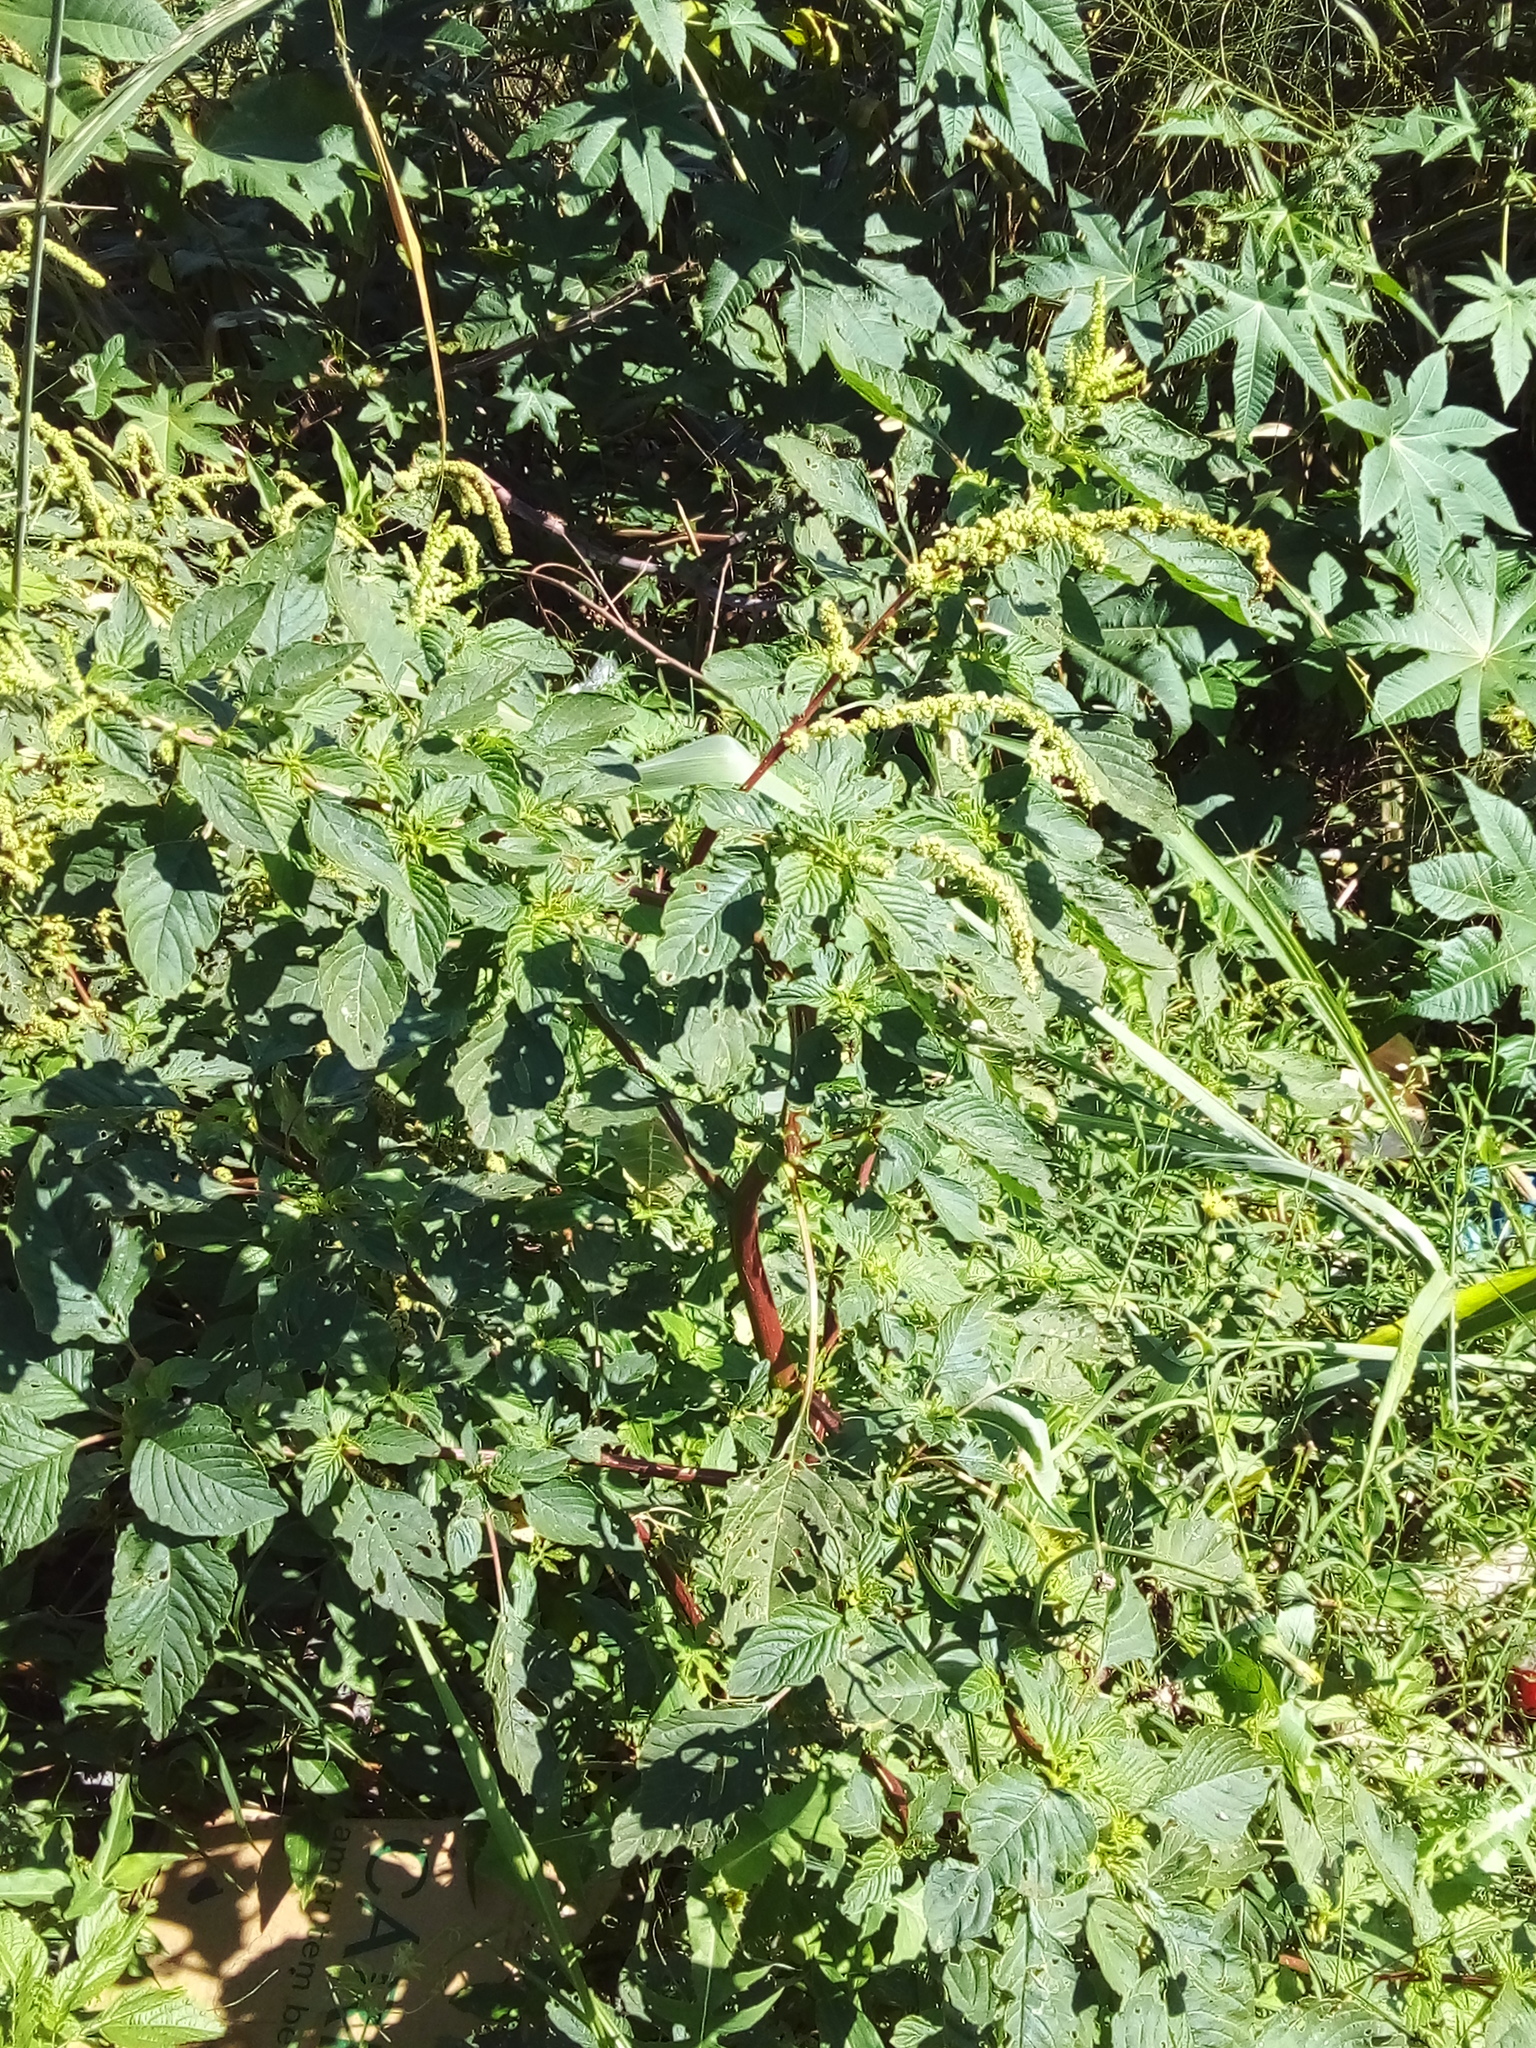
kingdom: Plantae
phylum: Tracheophyta
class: Magnoliopsida
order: Caryophyllales
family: Amaranthaceae
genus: Amaranthus
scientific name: Amaranthus spinosus
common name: Spiny amaranth
